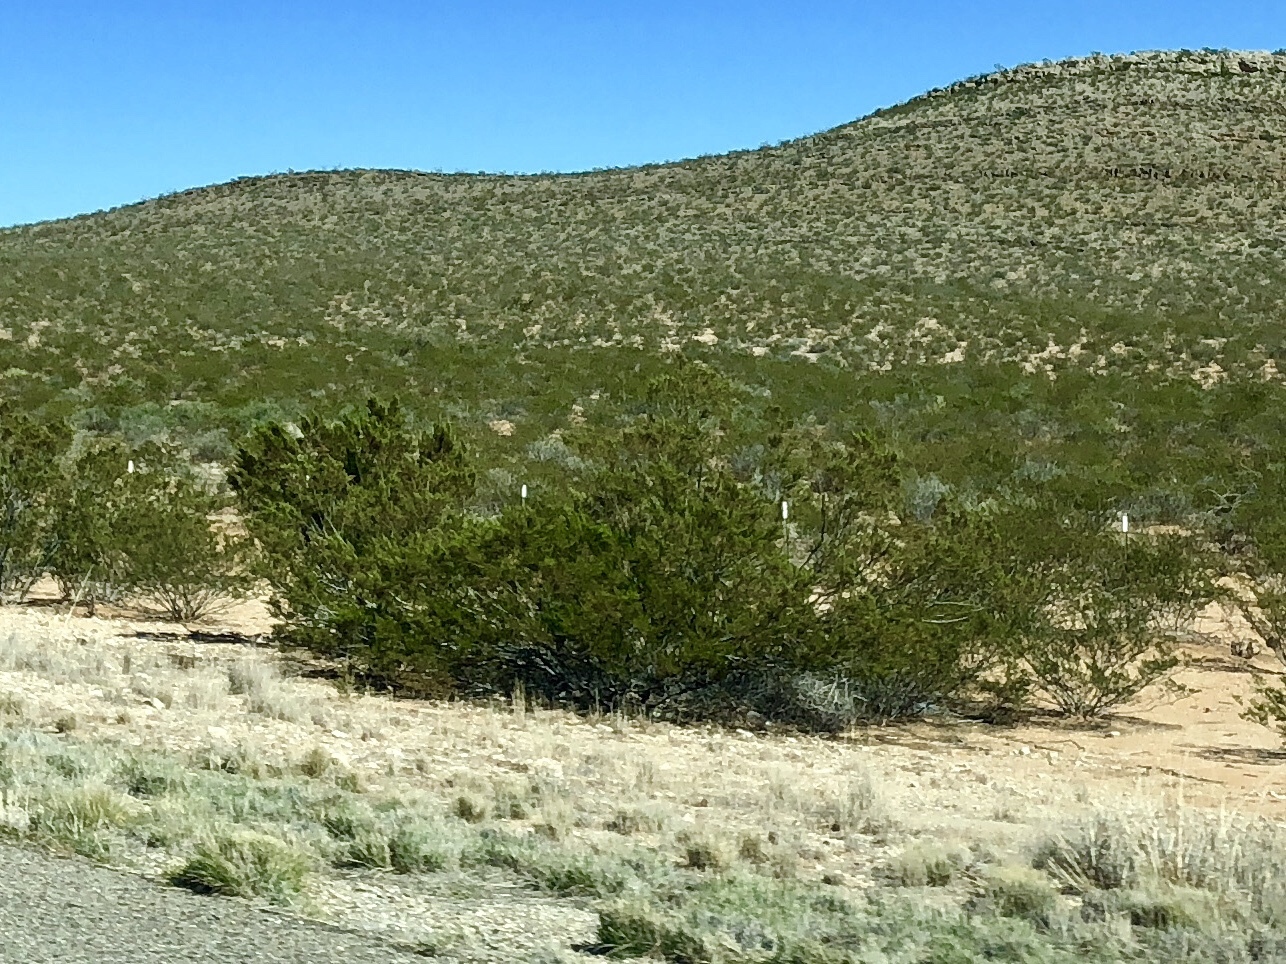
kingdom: Plantae
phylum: Tracheophyta
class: Magnoliopsida
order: Zygophyllales
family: Zygophyllaceae
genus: Larrea
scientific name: Larrea tridentata
